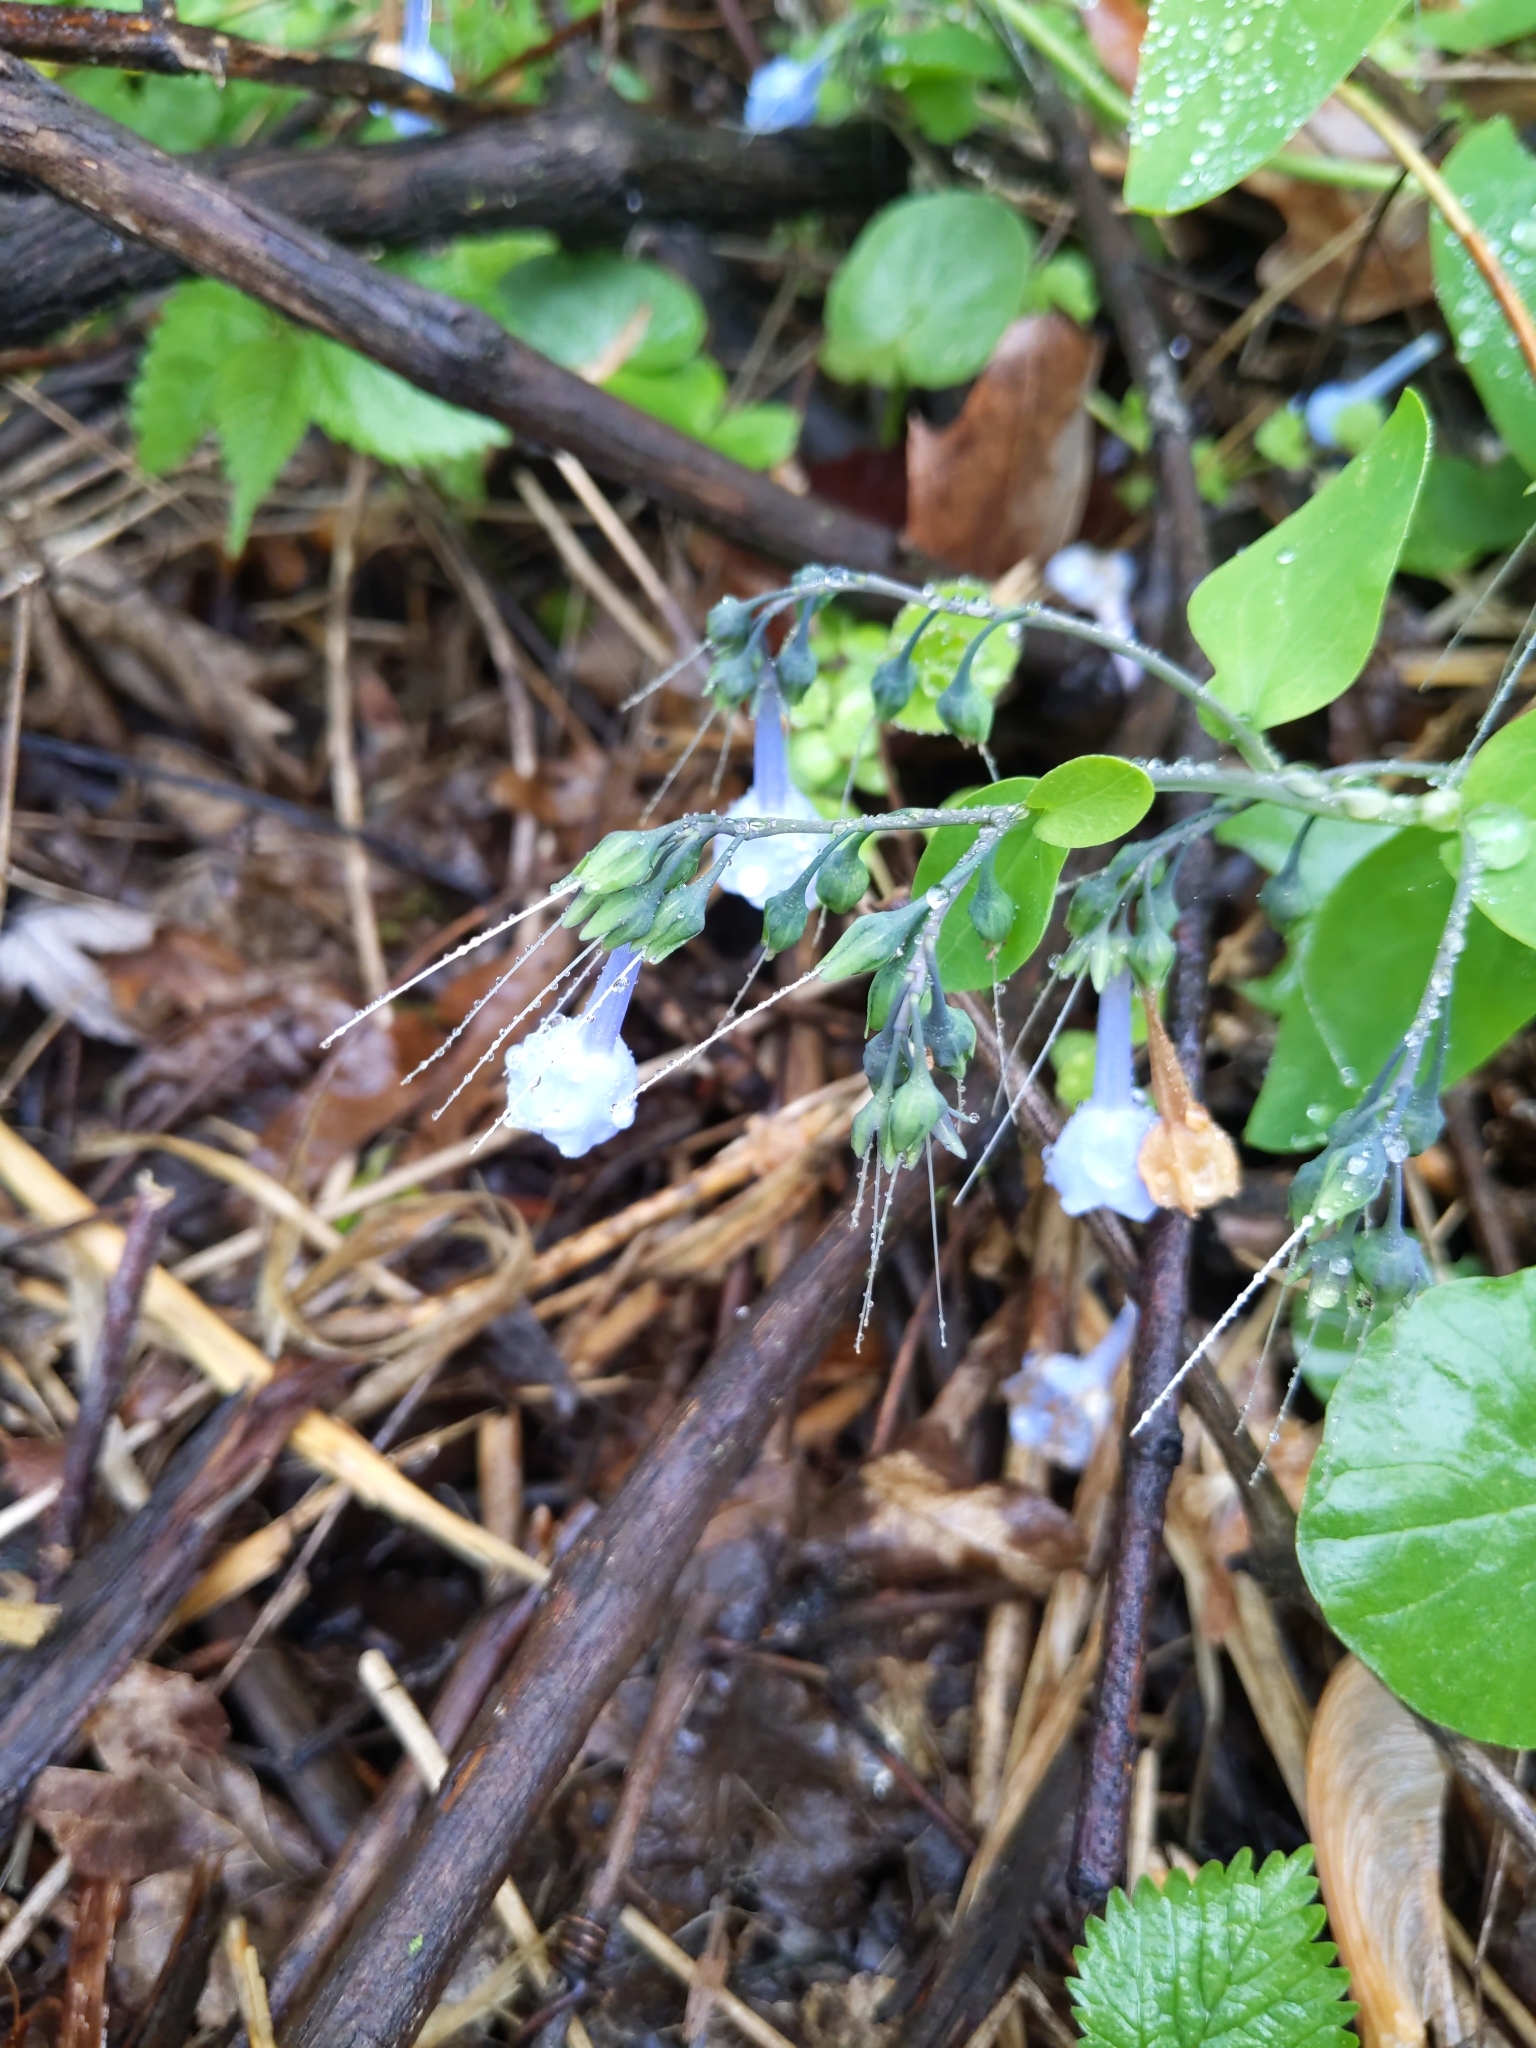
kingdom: Plantae
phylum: Tracheophyta
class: Magnoliopsida
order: Boraginales
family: Boraginaceae
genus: Mertensia
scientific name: Mertensia virginica
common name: Virginia bluebells
